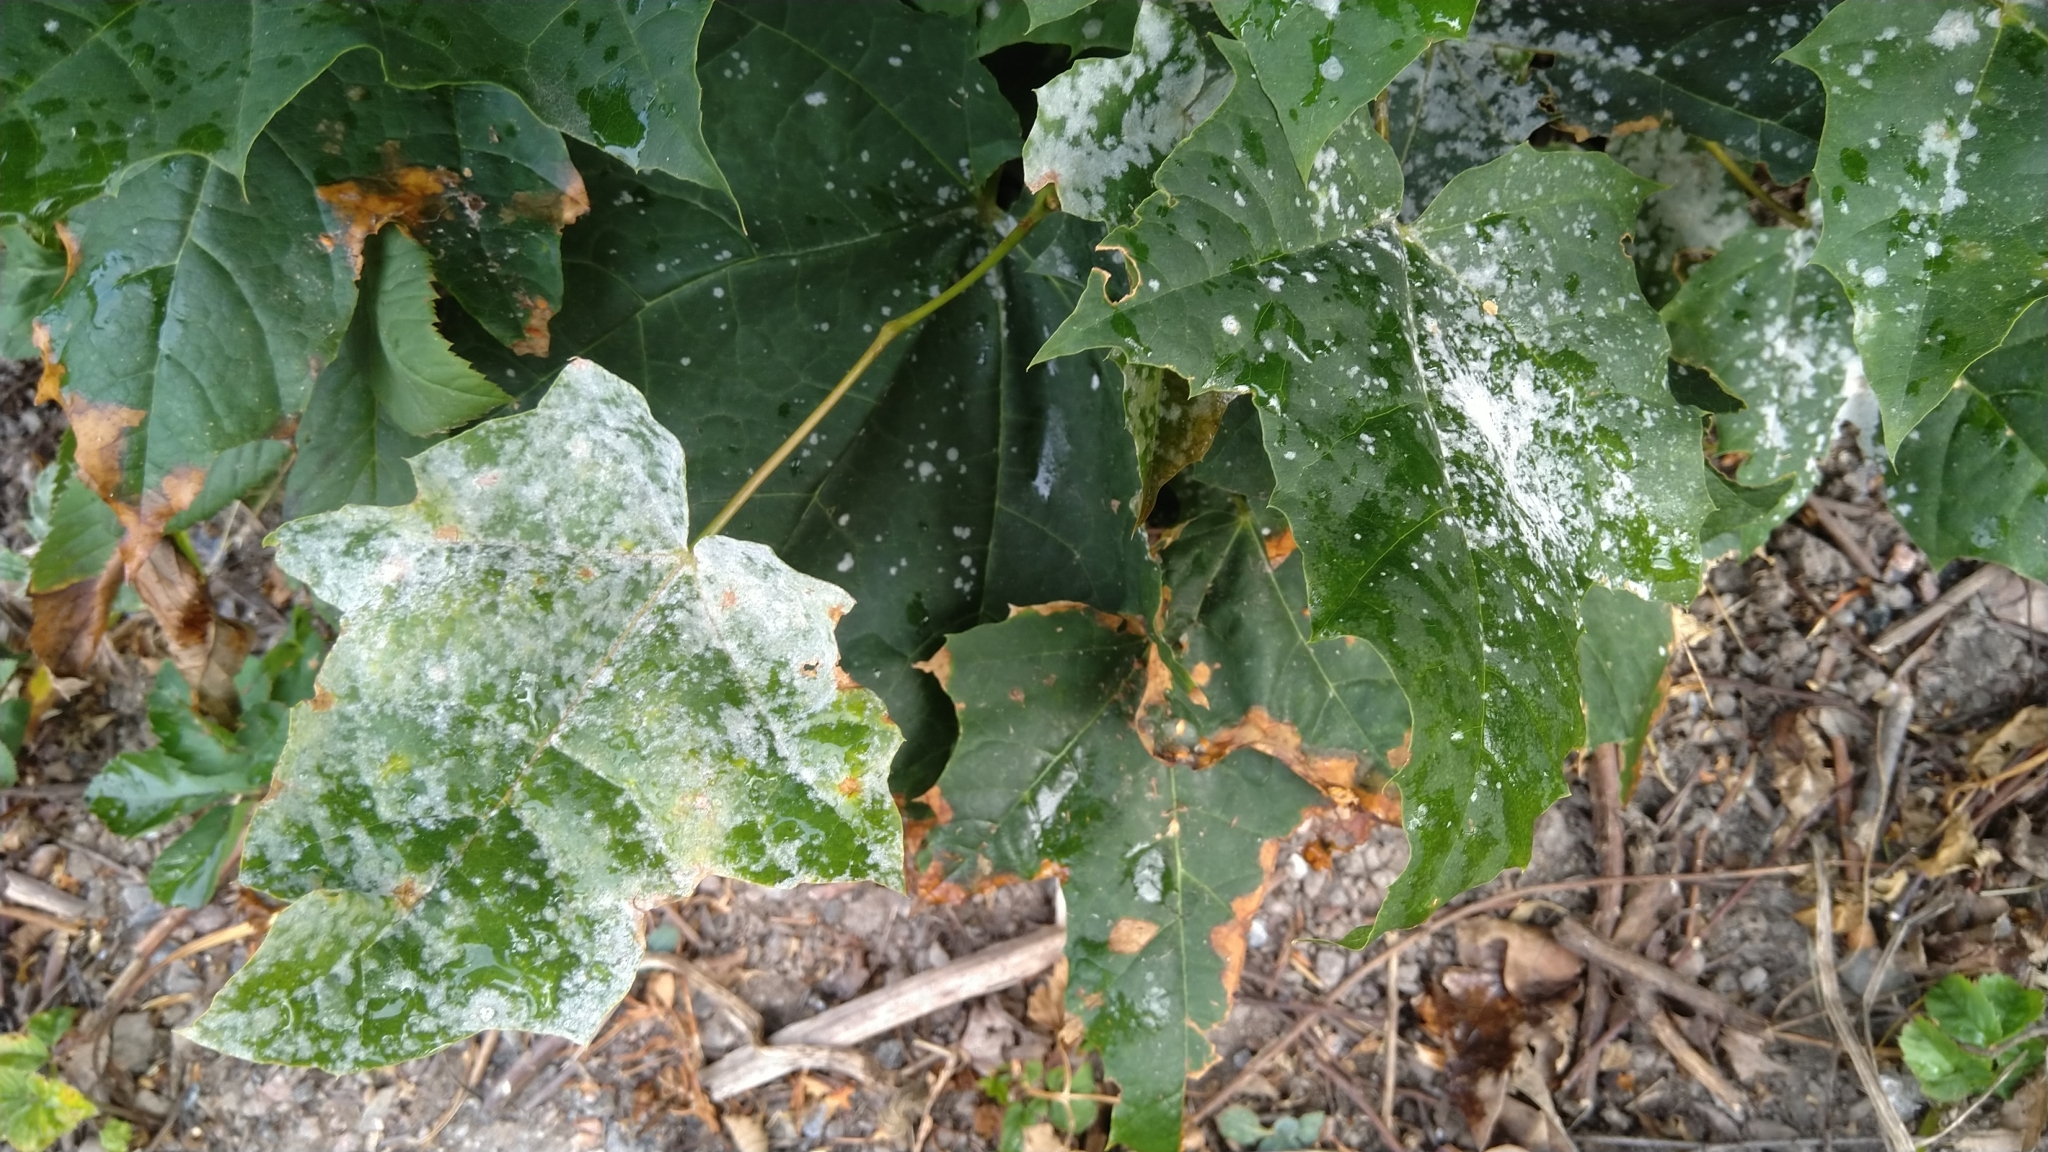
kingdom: Fungi
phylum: Ascomycota
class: Leotiomycetes
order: Helotiales
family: Erysiphaceae
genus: Sawadaea
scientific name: Sawadaea tulasnei
